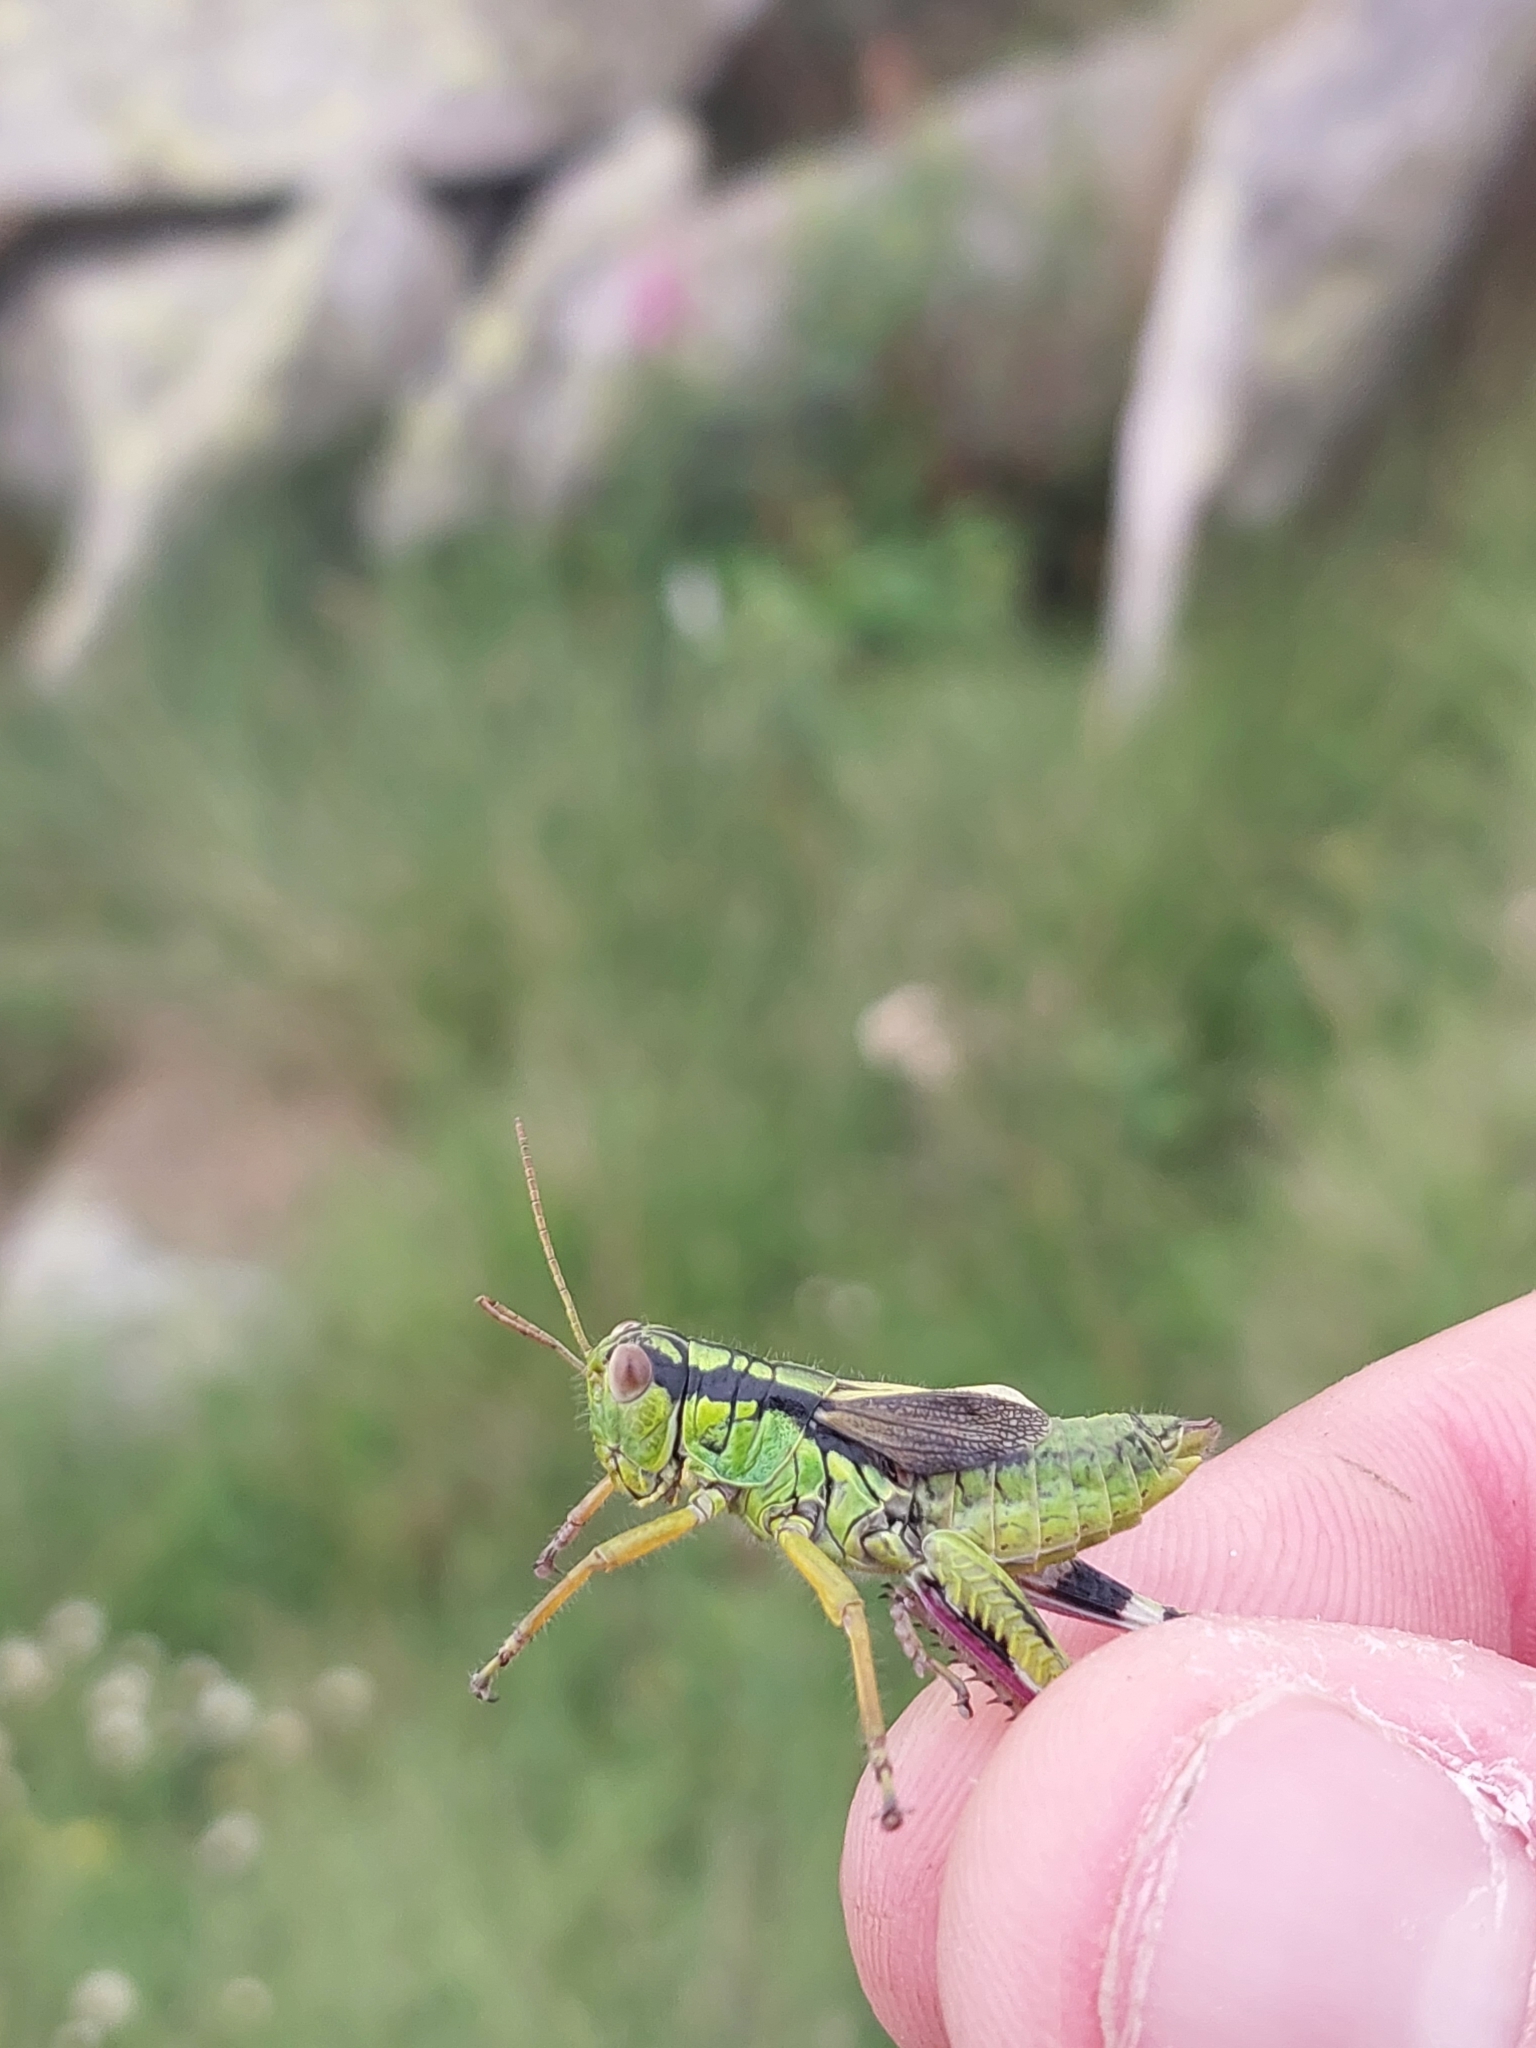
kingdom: Animalia
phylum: Arthropoda
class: Insecta
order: Orthoptera
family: Acrididae
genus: Nadigella
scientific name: Nadigella formosanta
